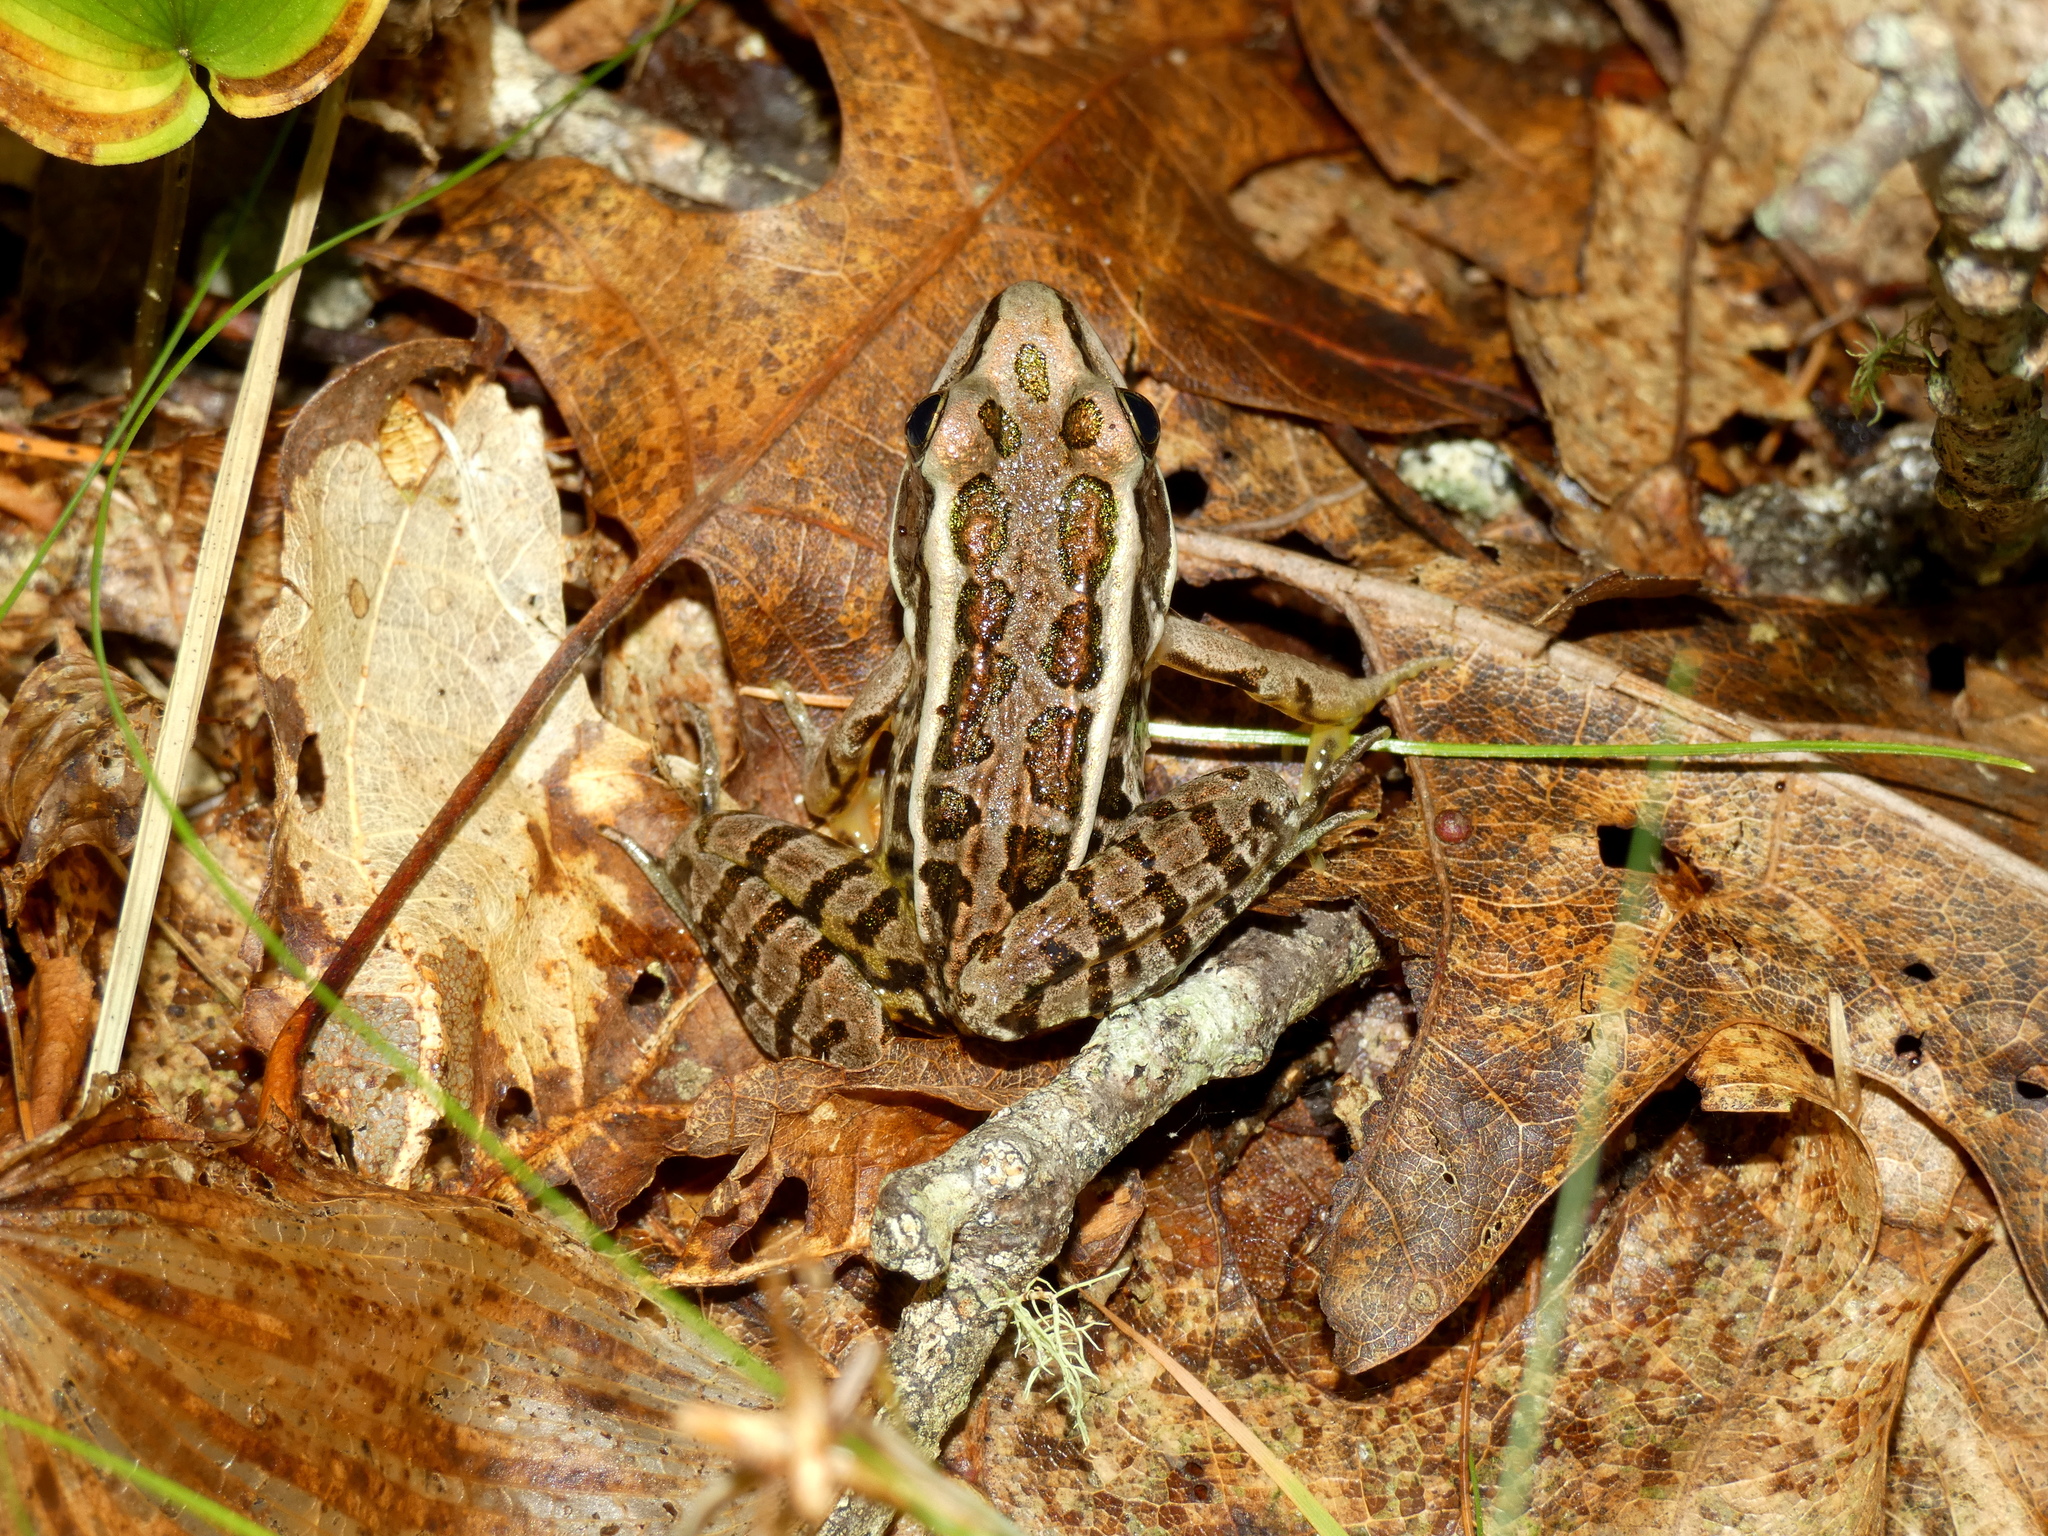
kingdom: Animalia
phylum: Chordata
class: Amphibia
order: Anura
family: Ranidae
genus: Lithobates
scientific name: Lithobates palustris
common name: Pickerel frog
